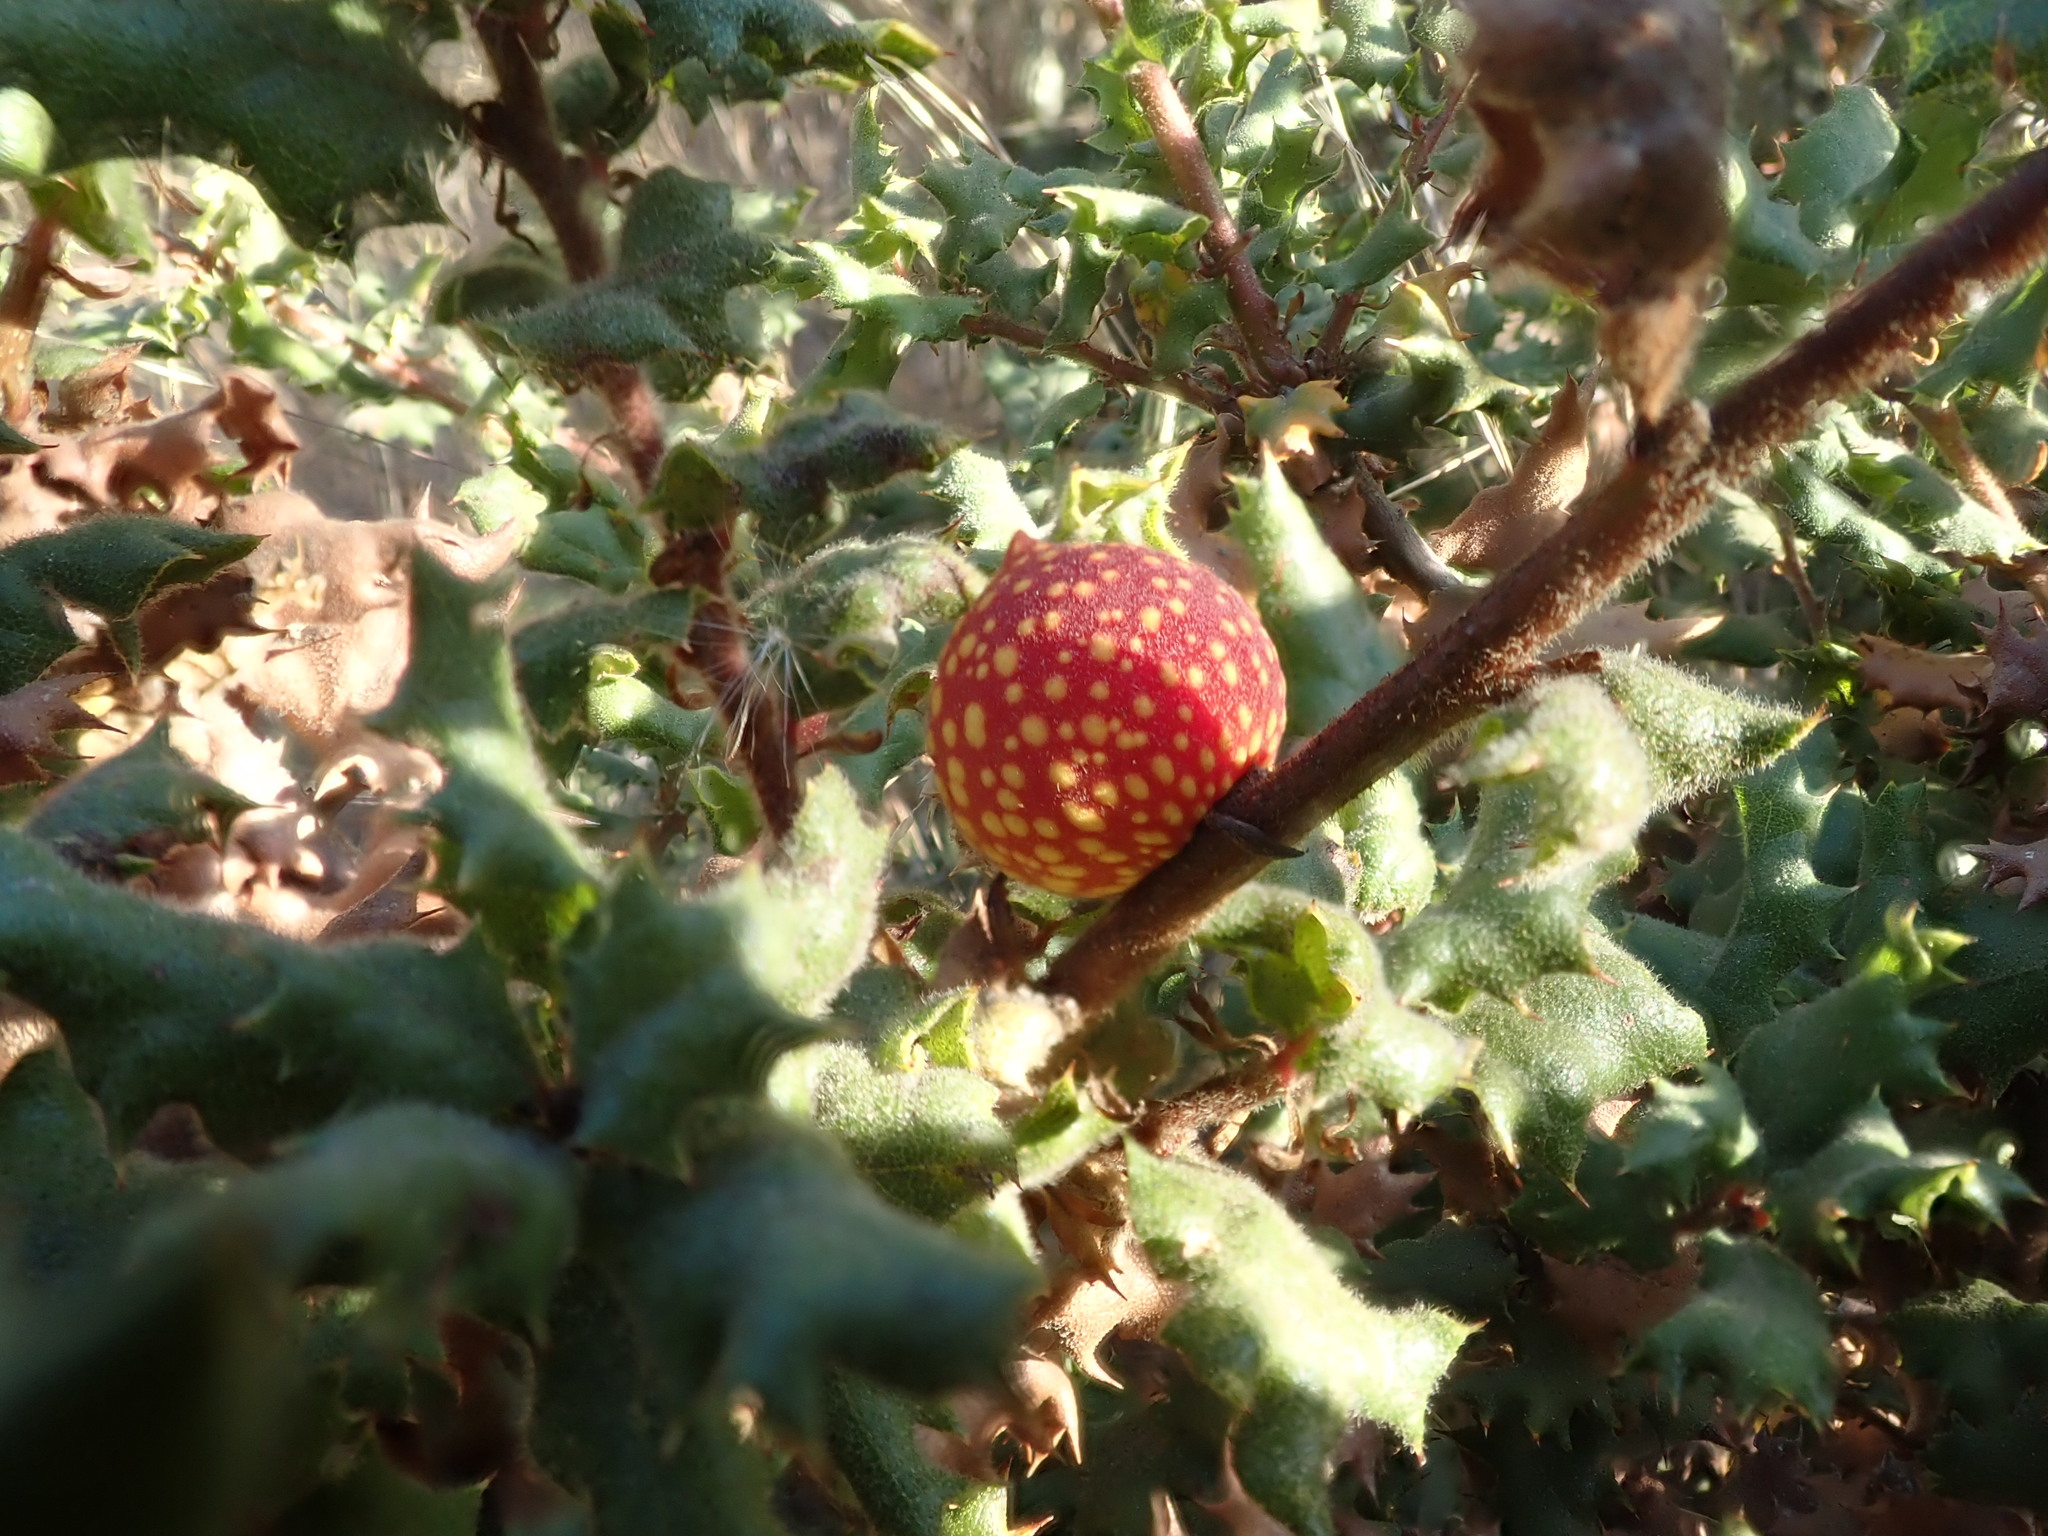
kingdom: Animalia
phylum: Arthropoda
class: Insecta
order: Hymenoptera
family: Cynipidae
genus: Burnettweldia
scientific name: Burnettweldia
